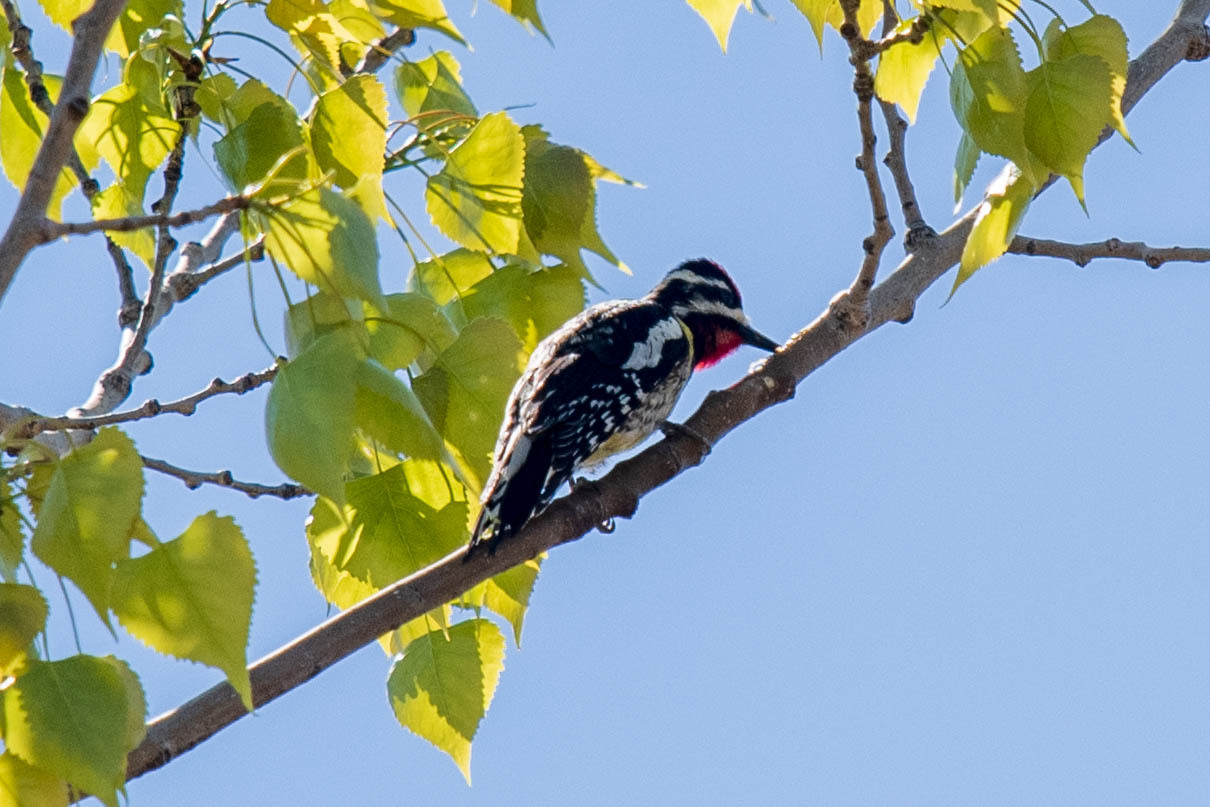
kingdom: Animalia
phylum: Chordata
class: Aves
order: Piciformes
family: Picidae
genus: Sphyrapicus
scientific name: Sphyrapicus varius
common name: Yellow-bellied sapsucker
